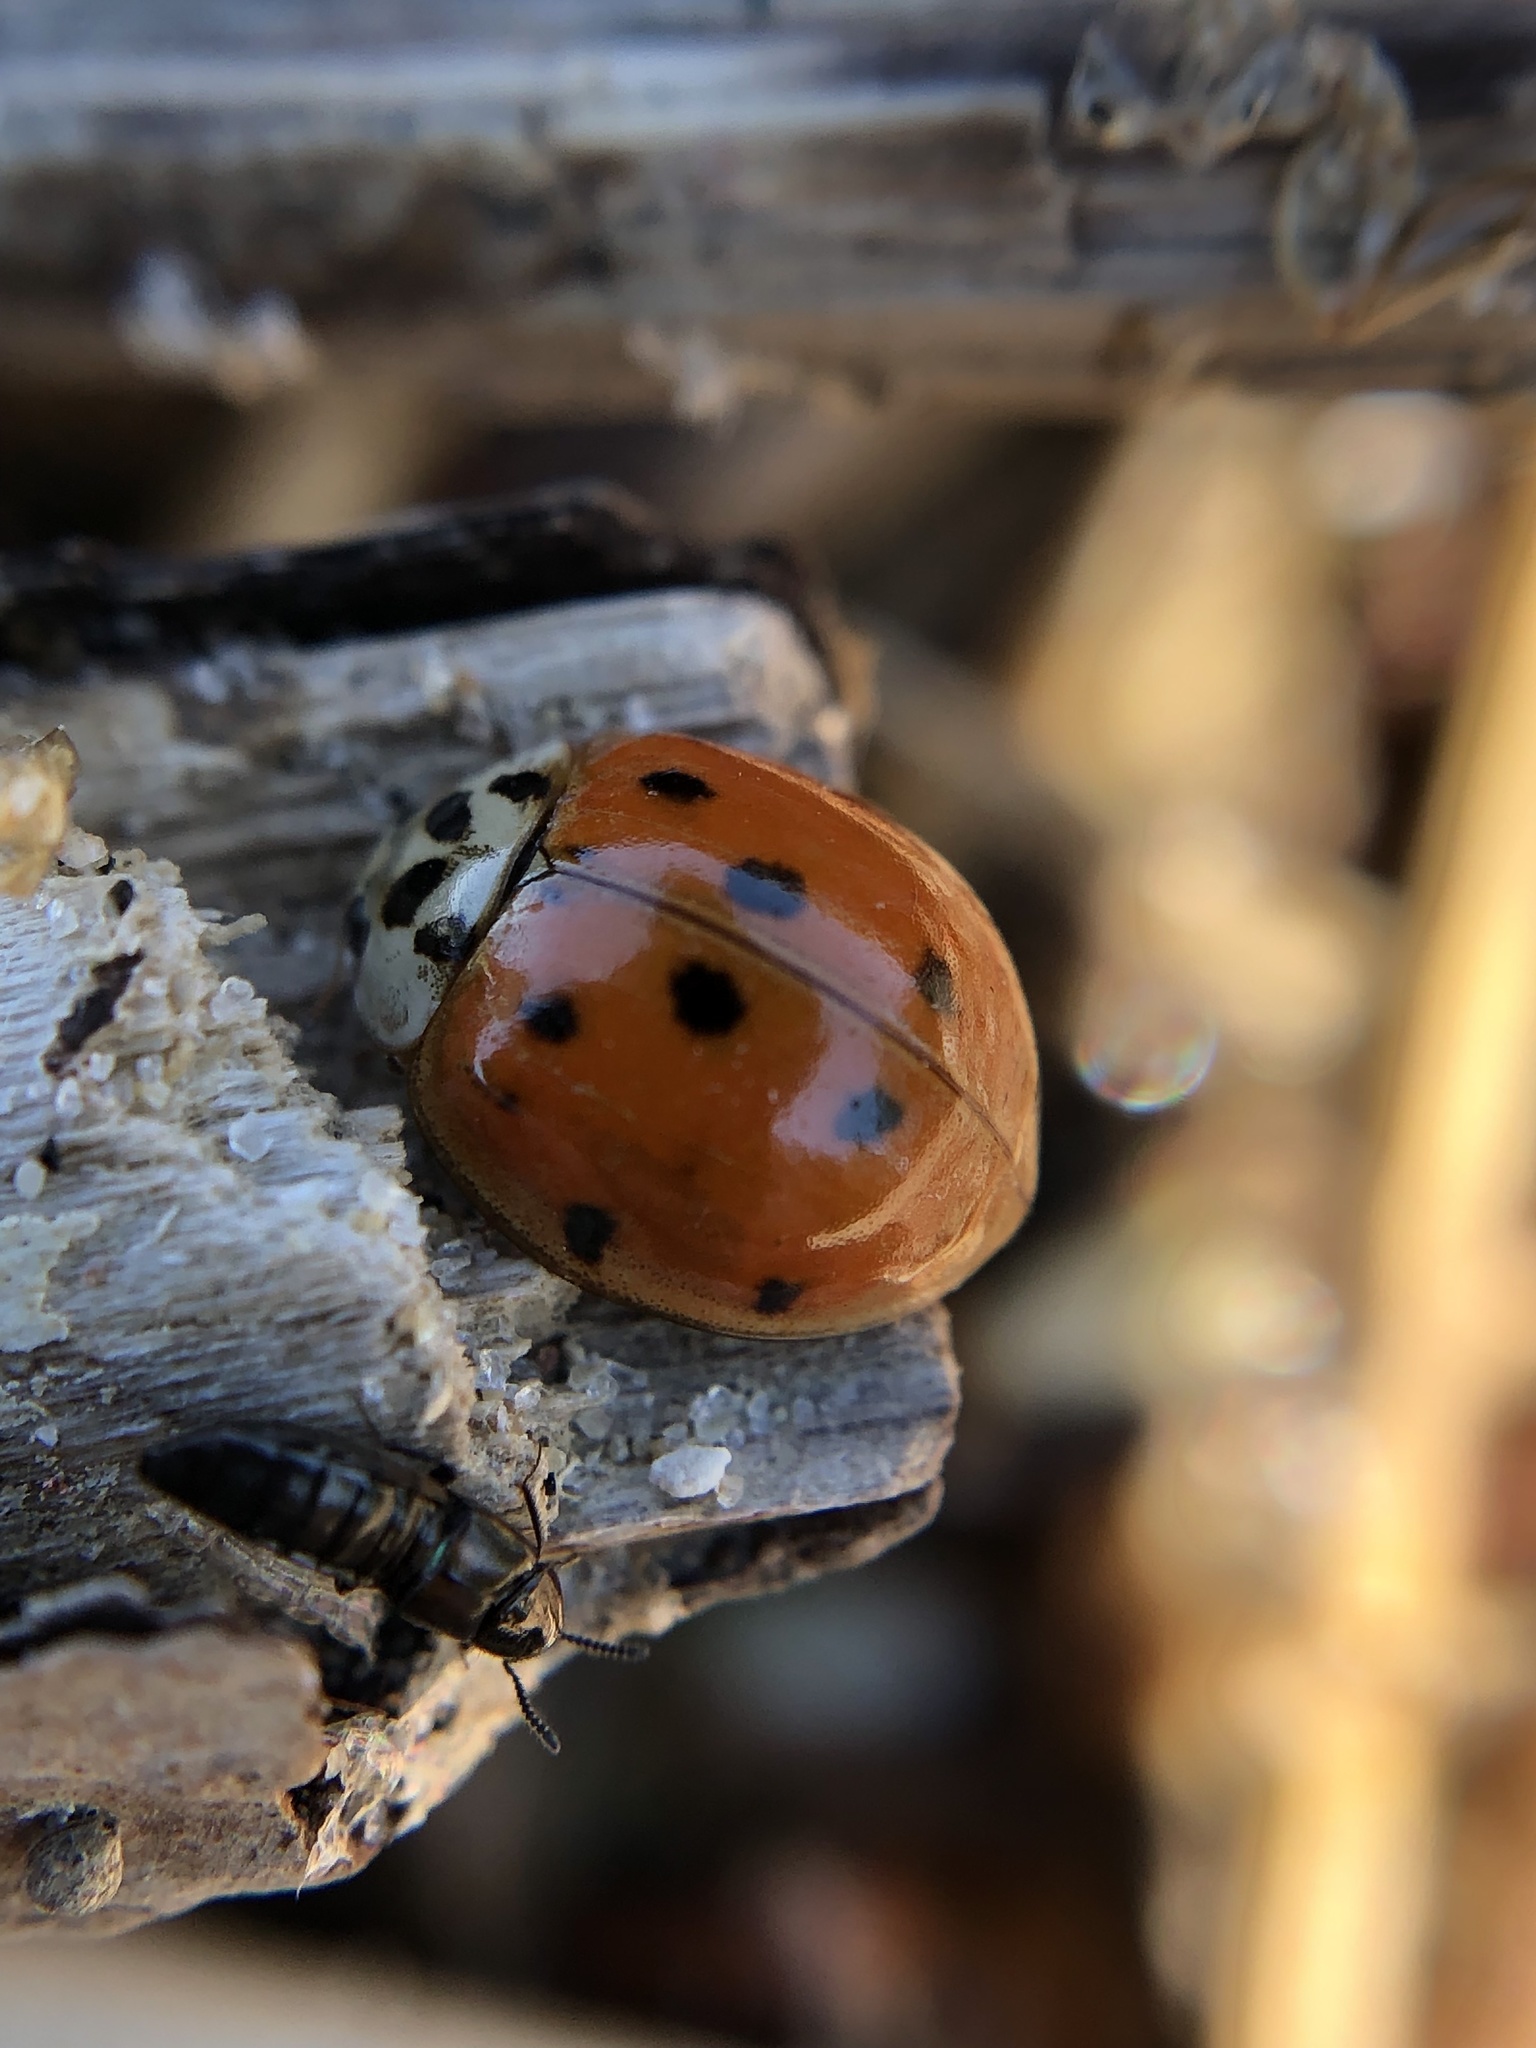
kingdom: Animalia
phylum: Arthropoda
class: Insecta
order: Coleoptera
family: Coccinellidae
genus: Harmonia
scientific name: Harmonia axyridis
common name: Harlequin ladybird
